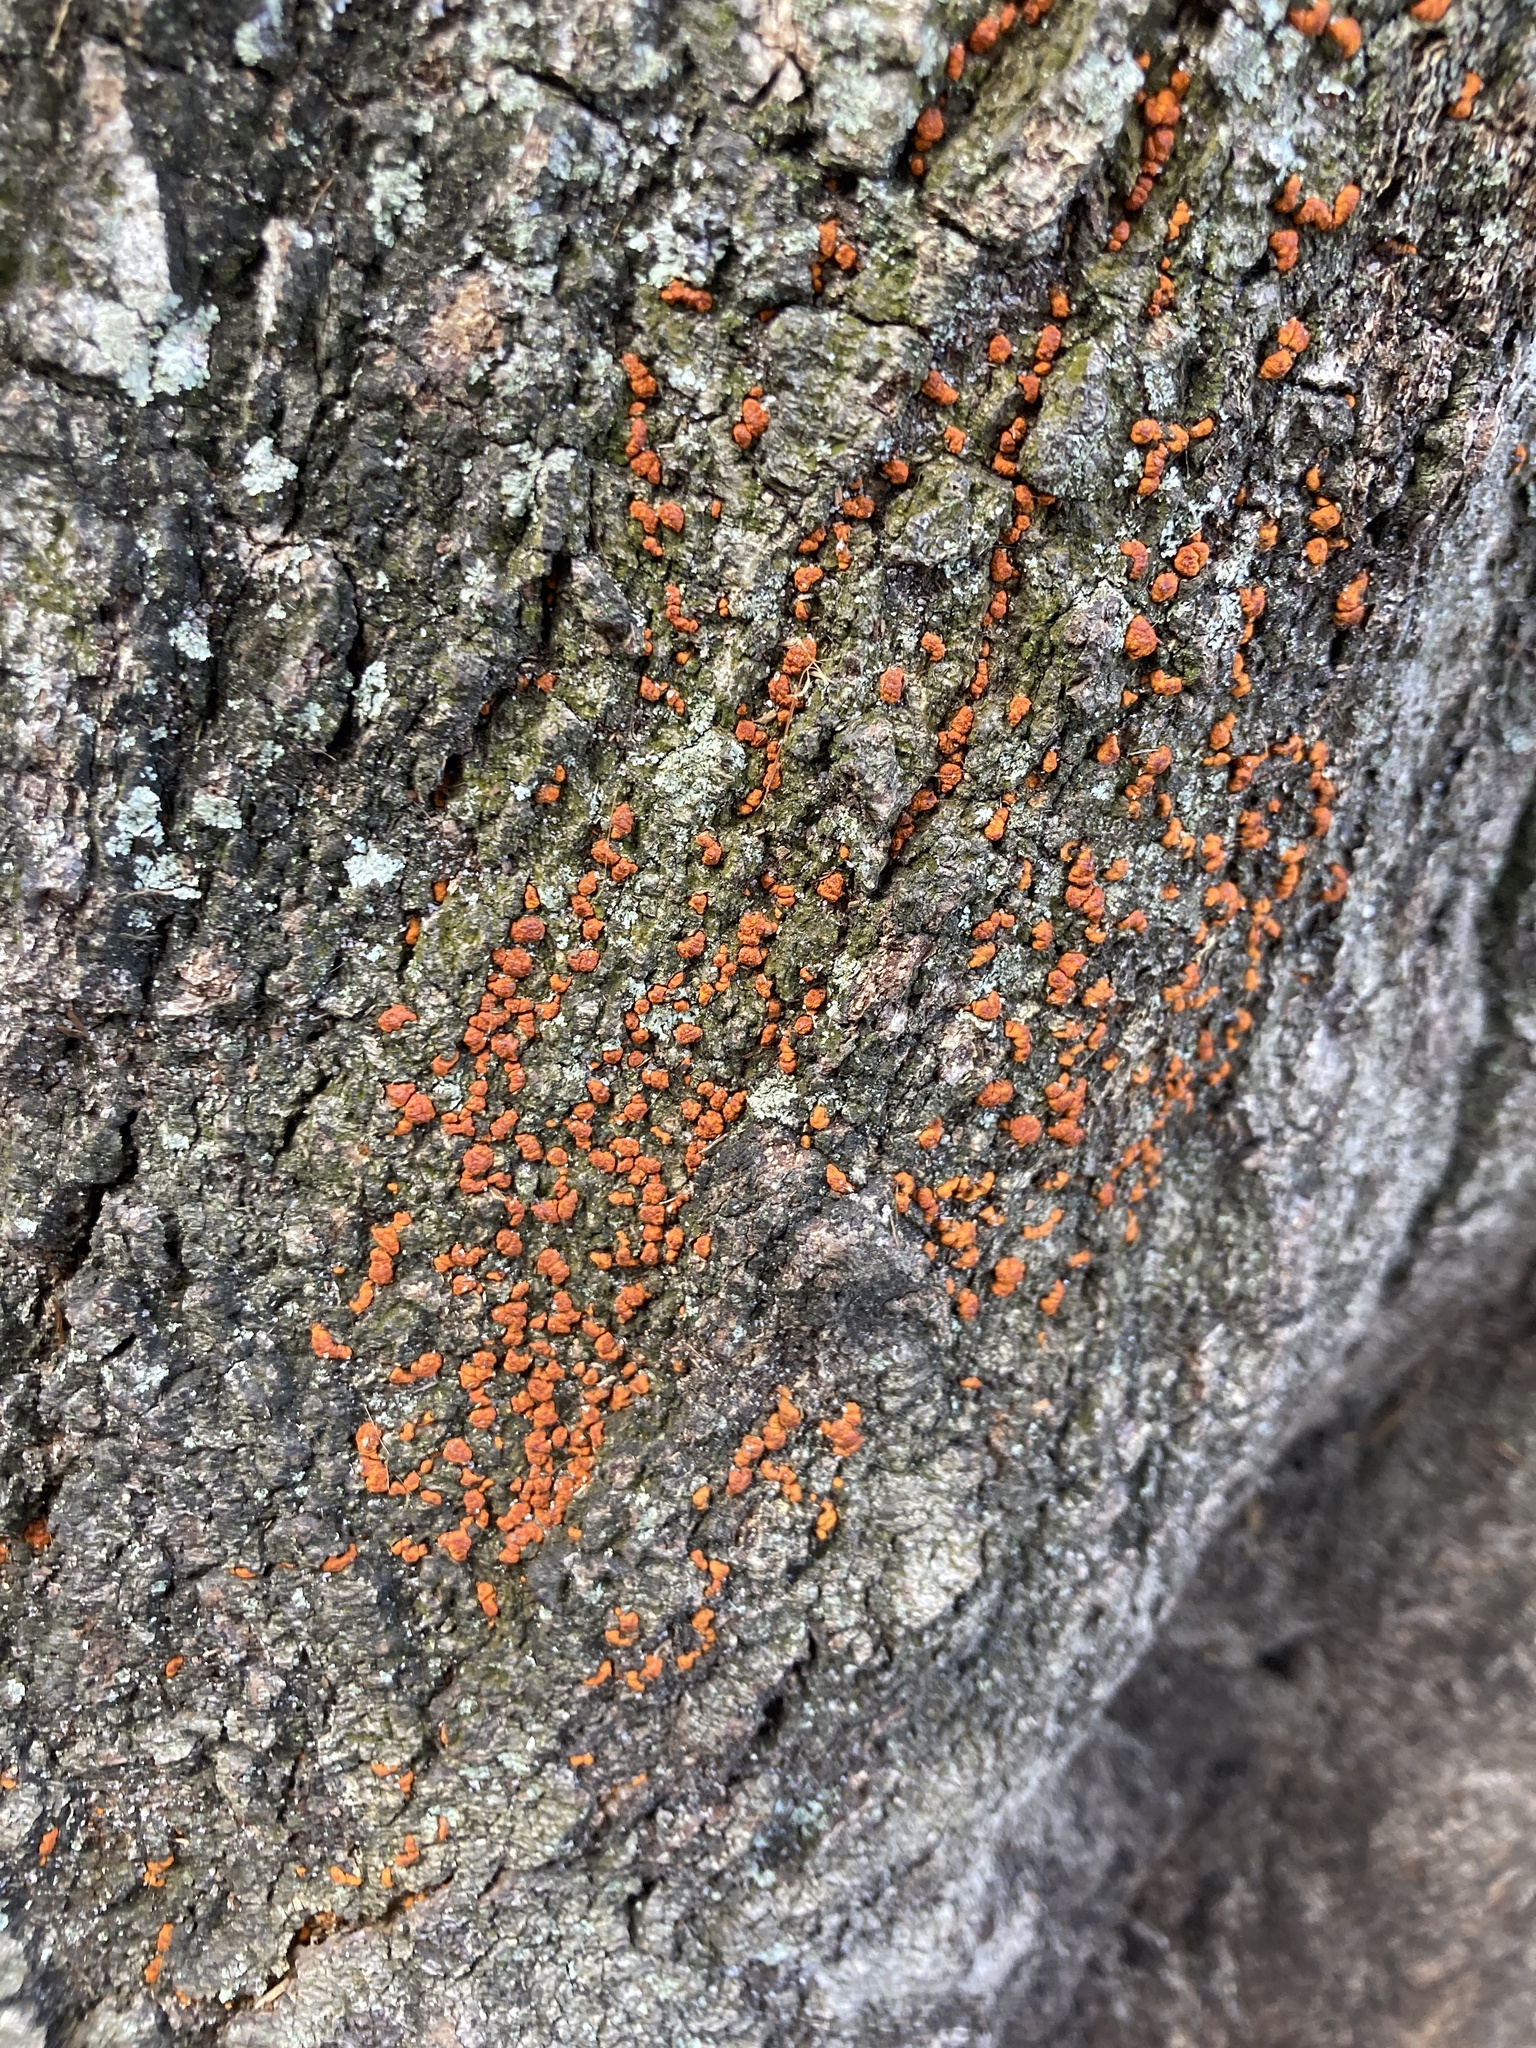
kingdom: Fungi
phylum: Ascomycota
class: Sordariomycetes
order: Diaporthales
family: Cryphonectriaceae
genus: Amphilogia
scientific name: Amphilogia gyrosa
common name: Orange hobnail canker
